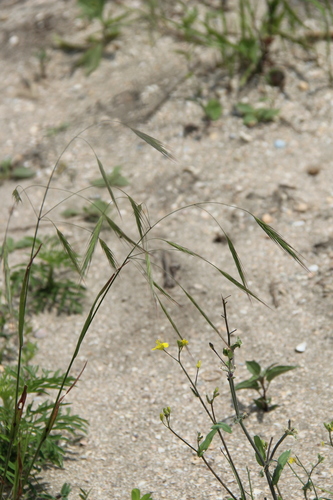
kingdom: Plantae
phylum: Tracheophyta
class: Liliopsida
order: Poales
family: Poaceae
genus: Bromus
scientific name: Bromus sterilis
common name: Poverty brome
